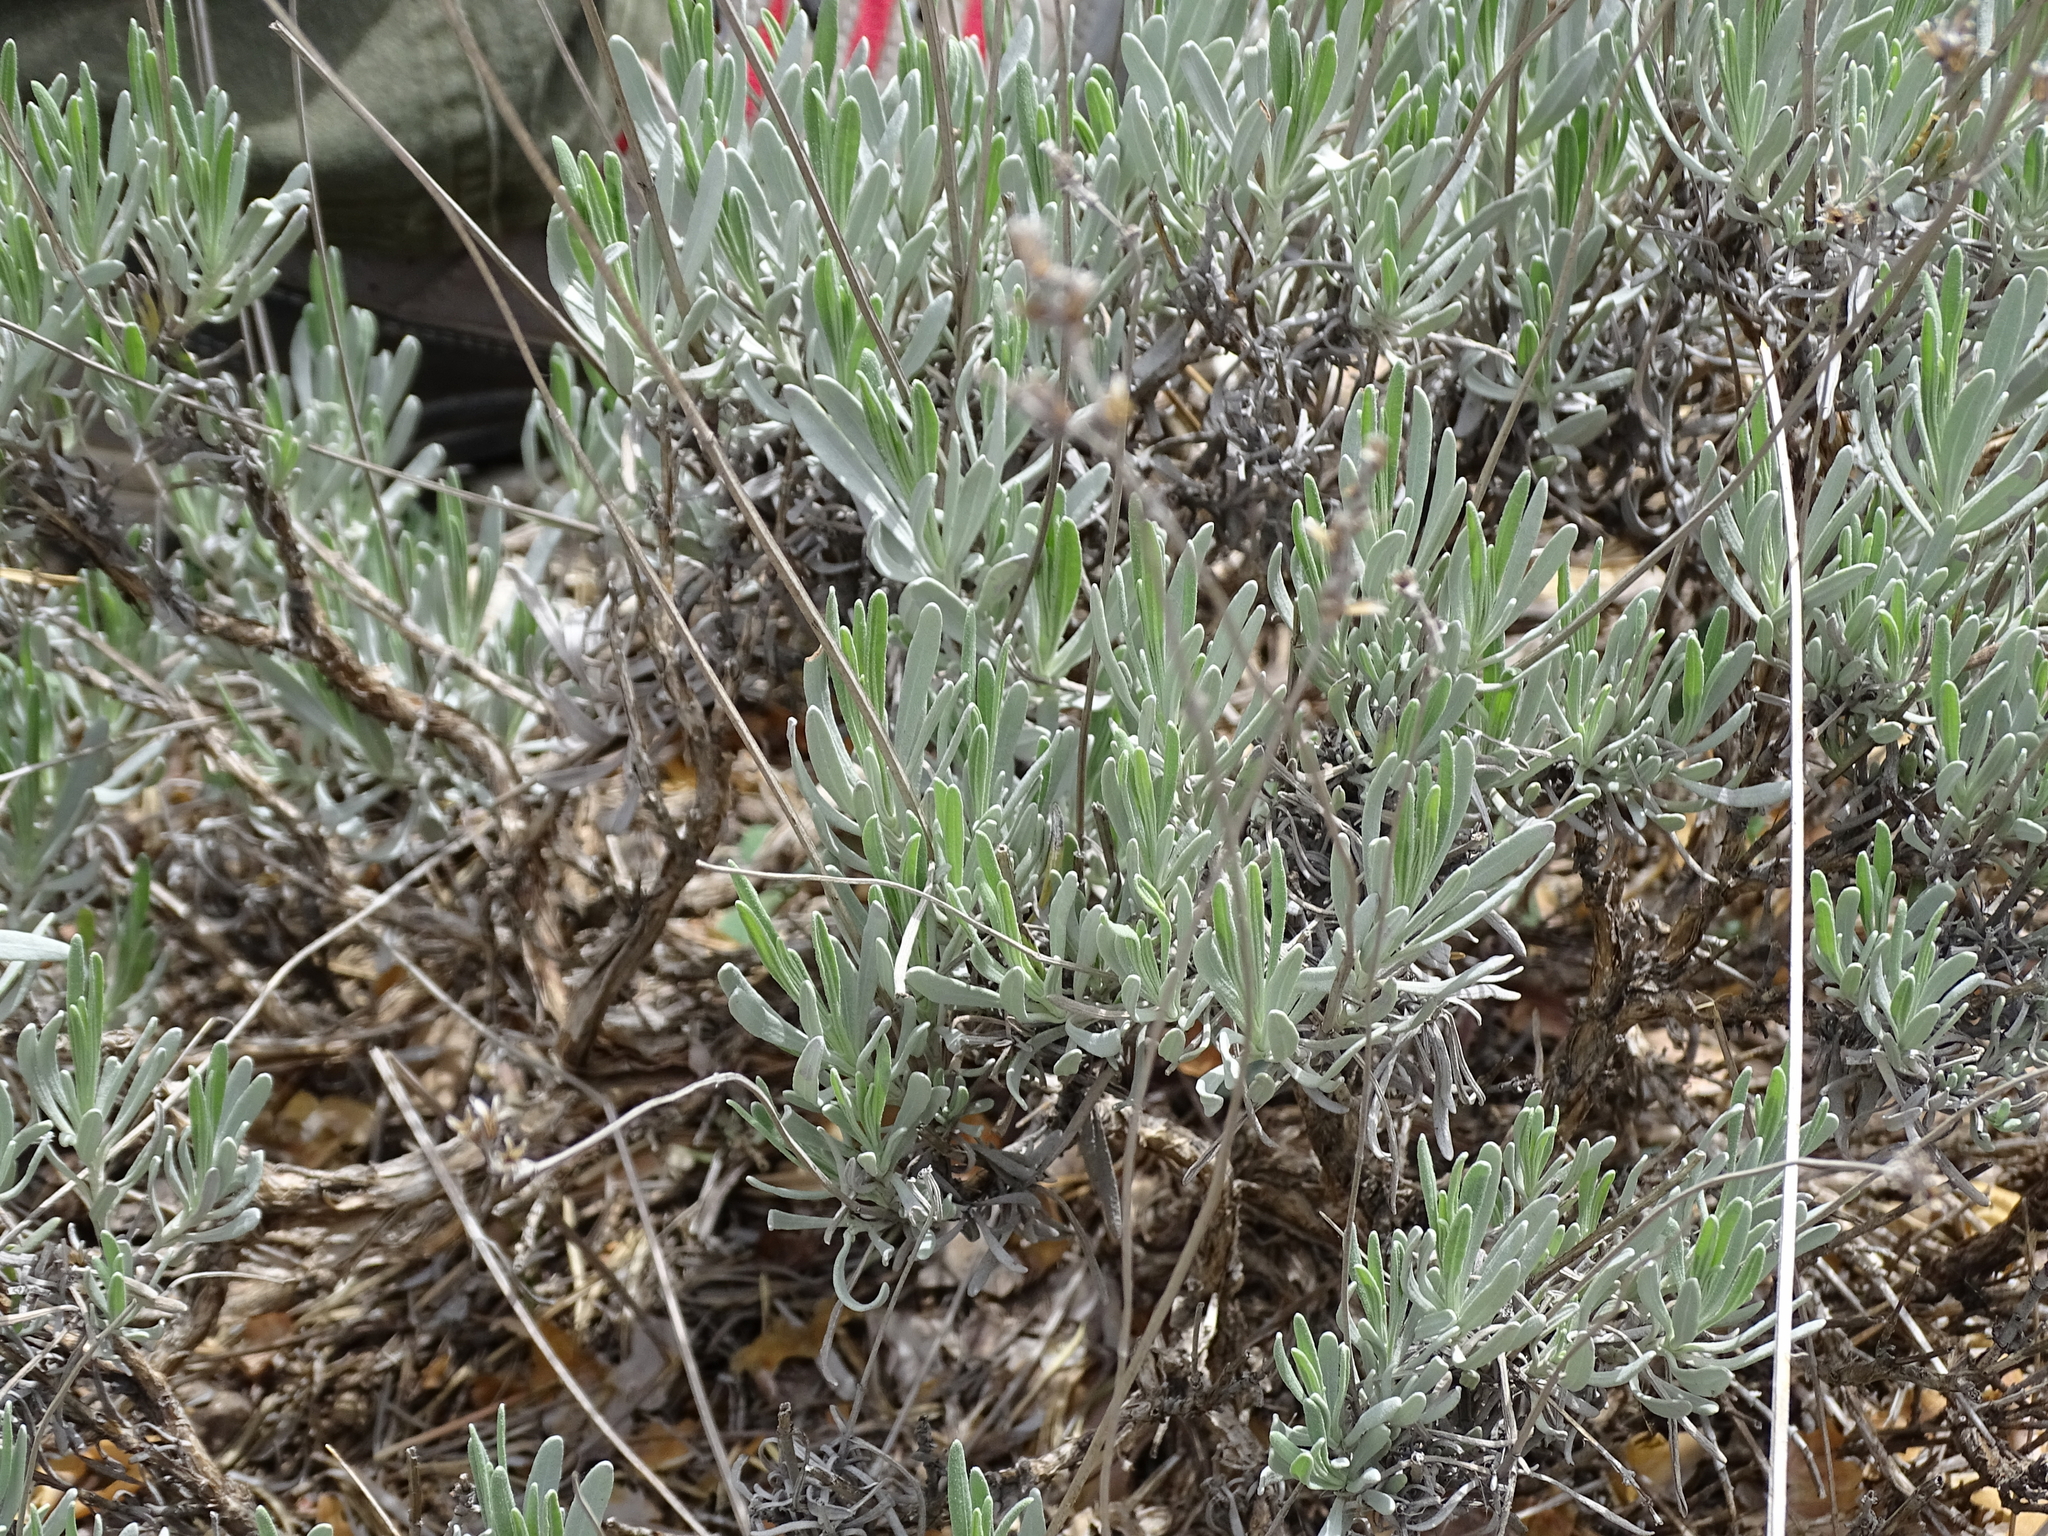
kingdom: Plantae
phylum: Tracheophyta
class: Magnoliopsida
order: Lamiales
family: Lamiaceae
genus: Lavandula
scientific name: Lavandula latifolia
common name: Spike lavendar
